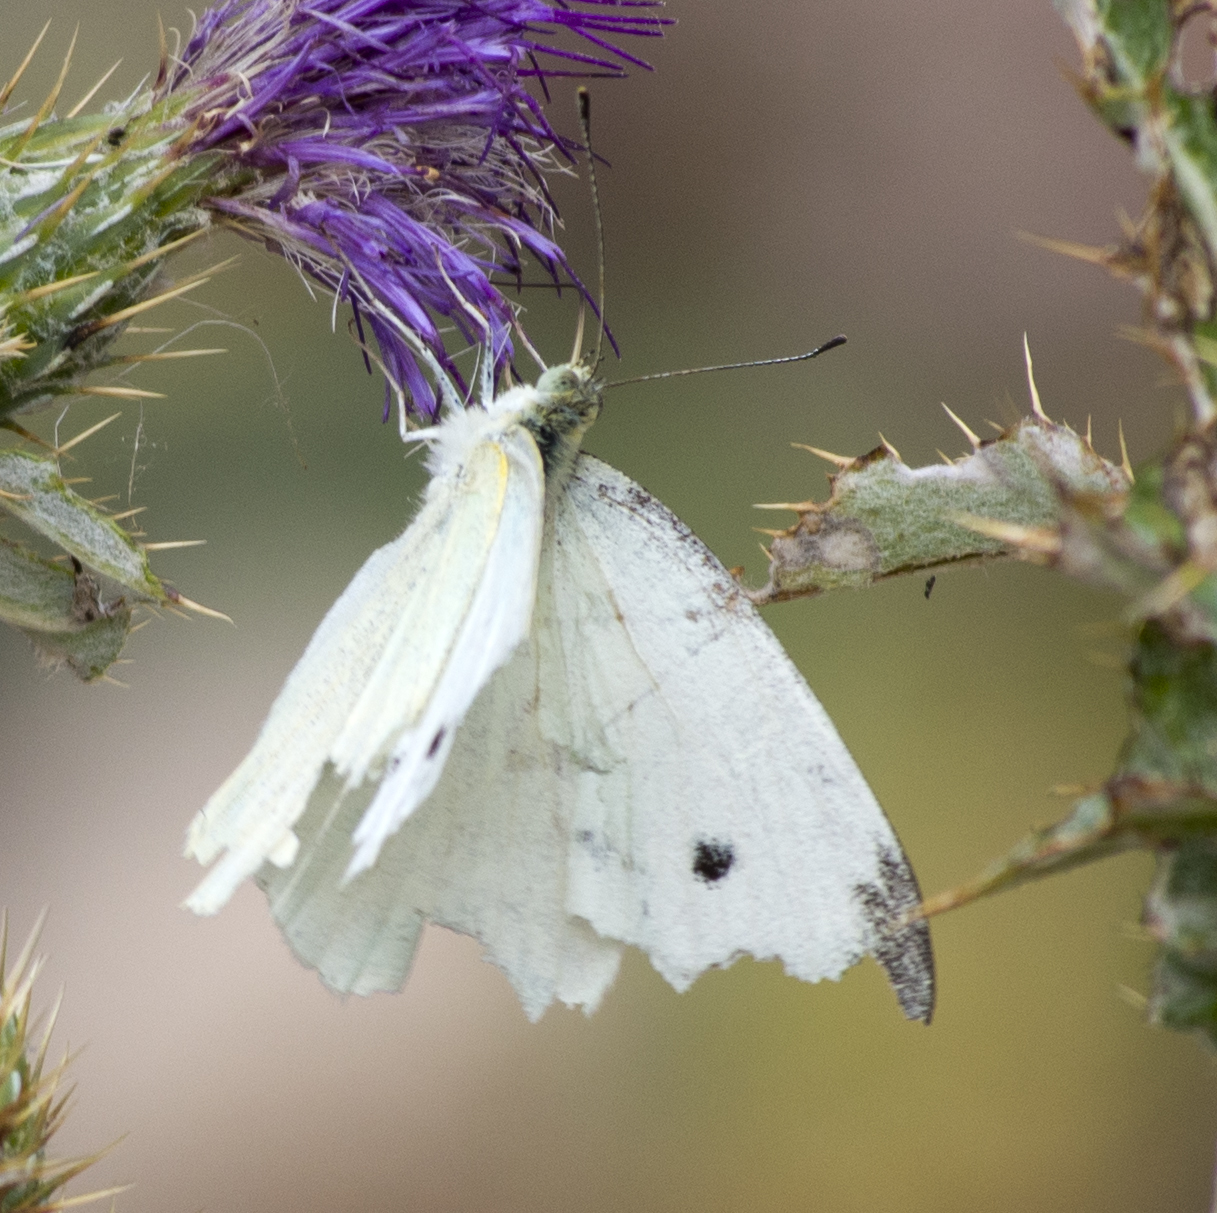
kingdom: Animalia
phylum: Arthropoda
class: Insecta
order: Lepidoptera
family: Pieridae
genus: Pieris
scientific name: Pieris rapae
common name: Small white
